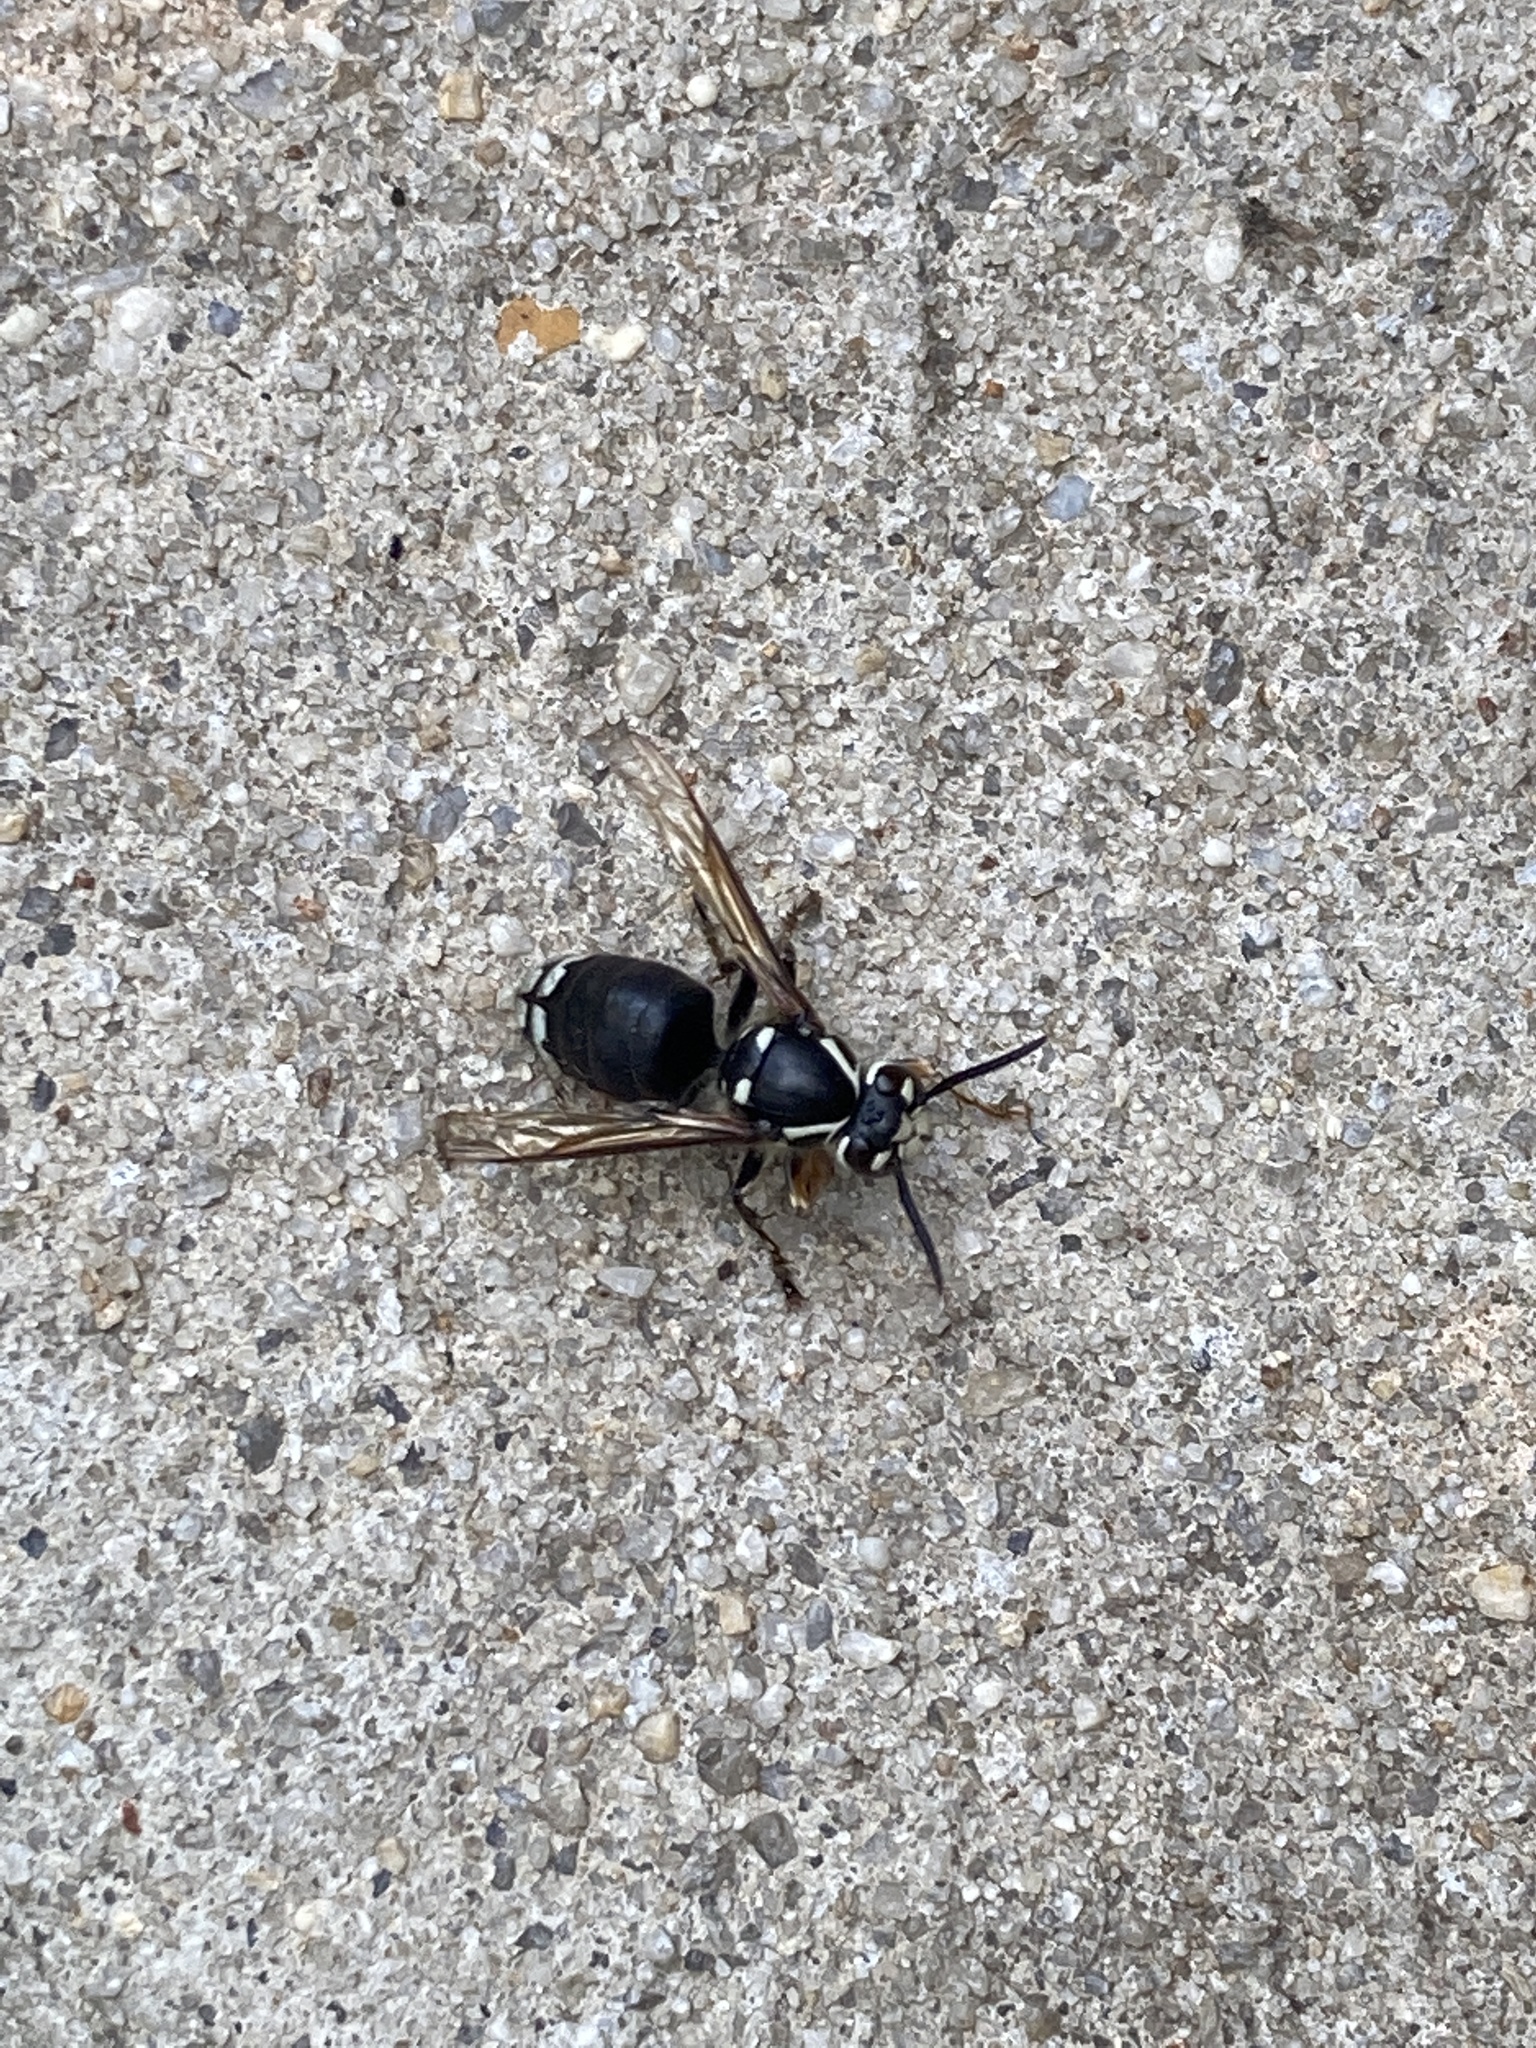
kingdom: Animalia
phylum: Arthropoda
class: Insecta
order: Hymenoptera
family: Vespidae
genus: Dolichovespula
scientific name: Dolichovespula maculata
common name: Bald-faced hornet
